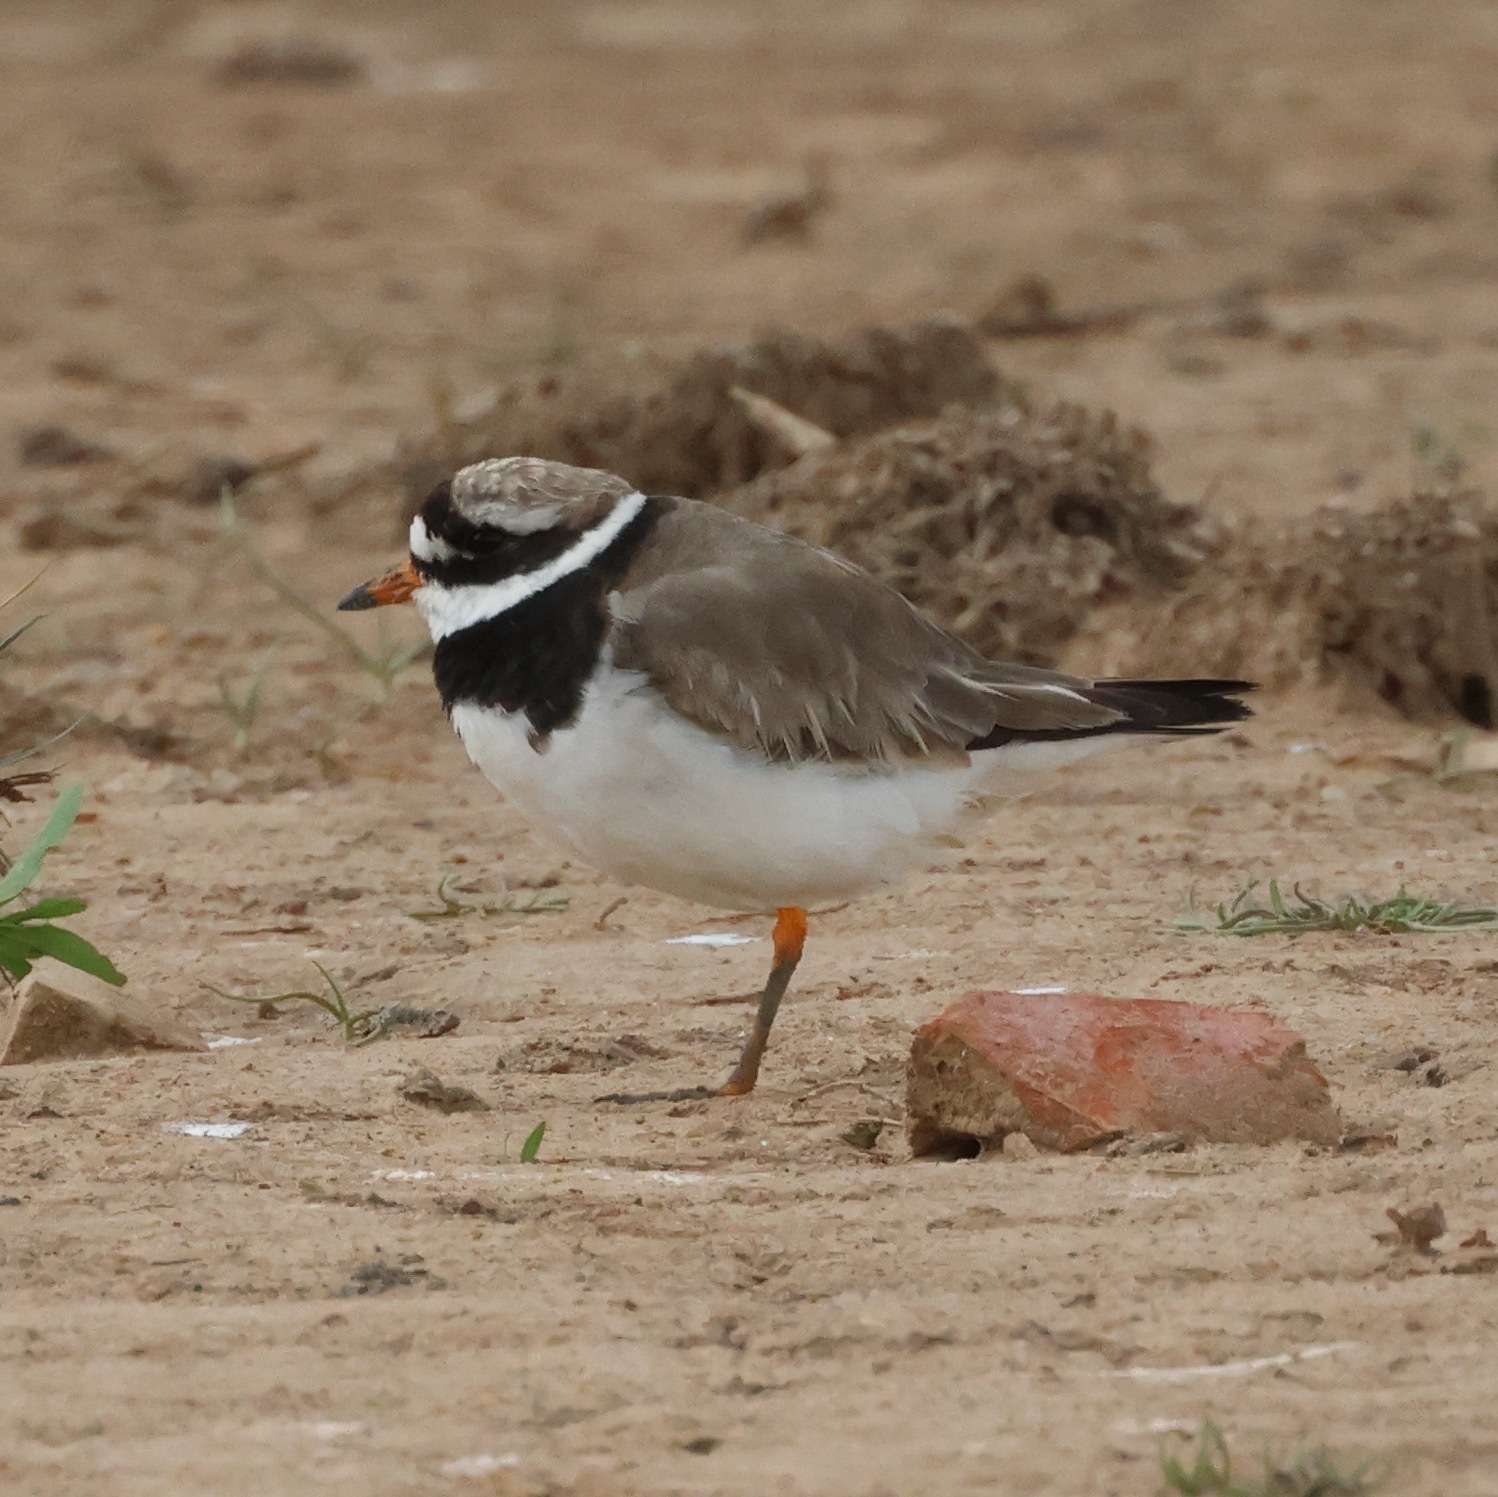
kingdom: Animalia
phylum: Chordata
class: Aves
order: Charadriiformes
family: Charadriidae
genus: Charadrius
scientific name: Charadrius hiaticula
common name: Common ringed plover
